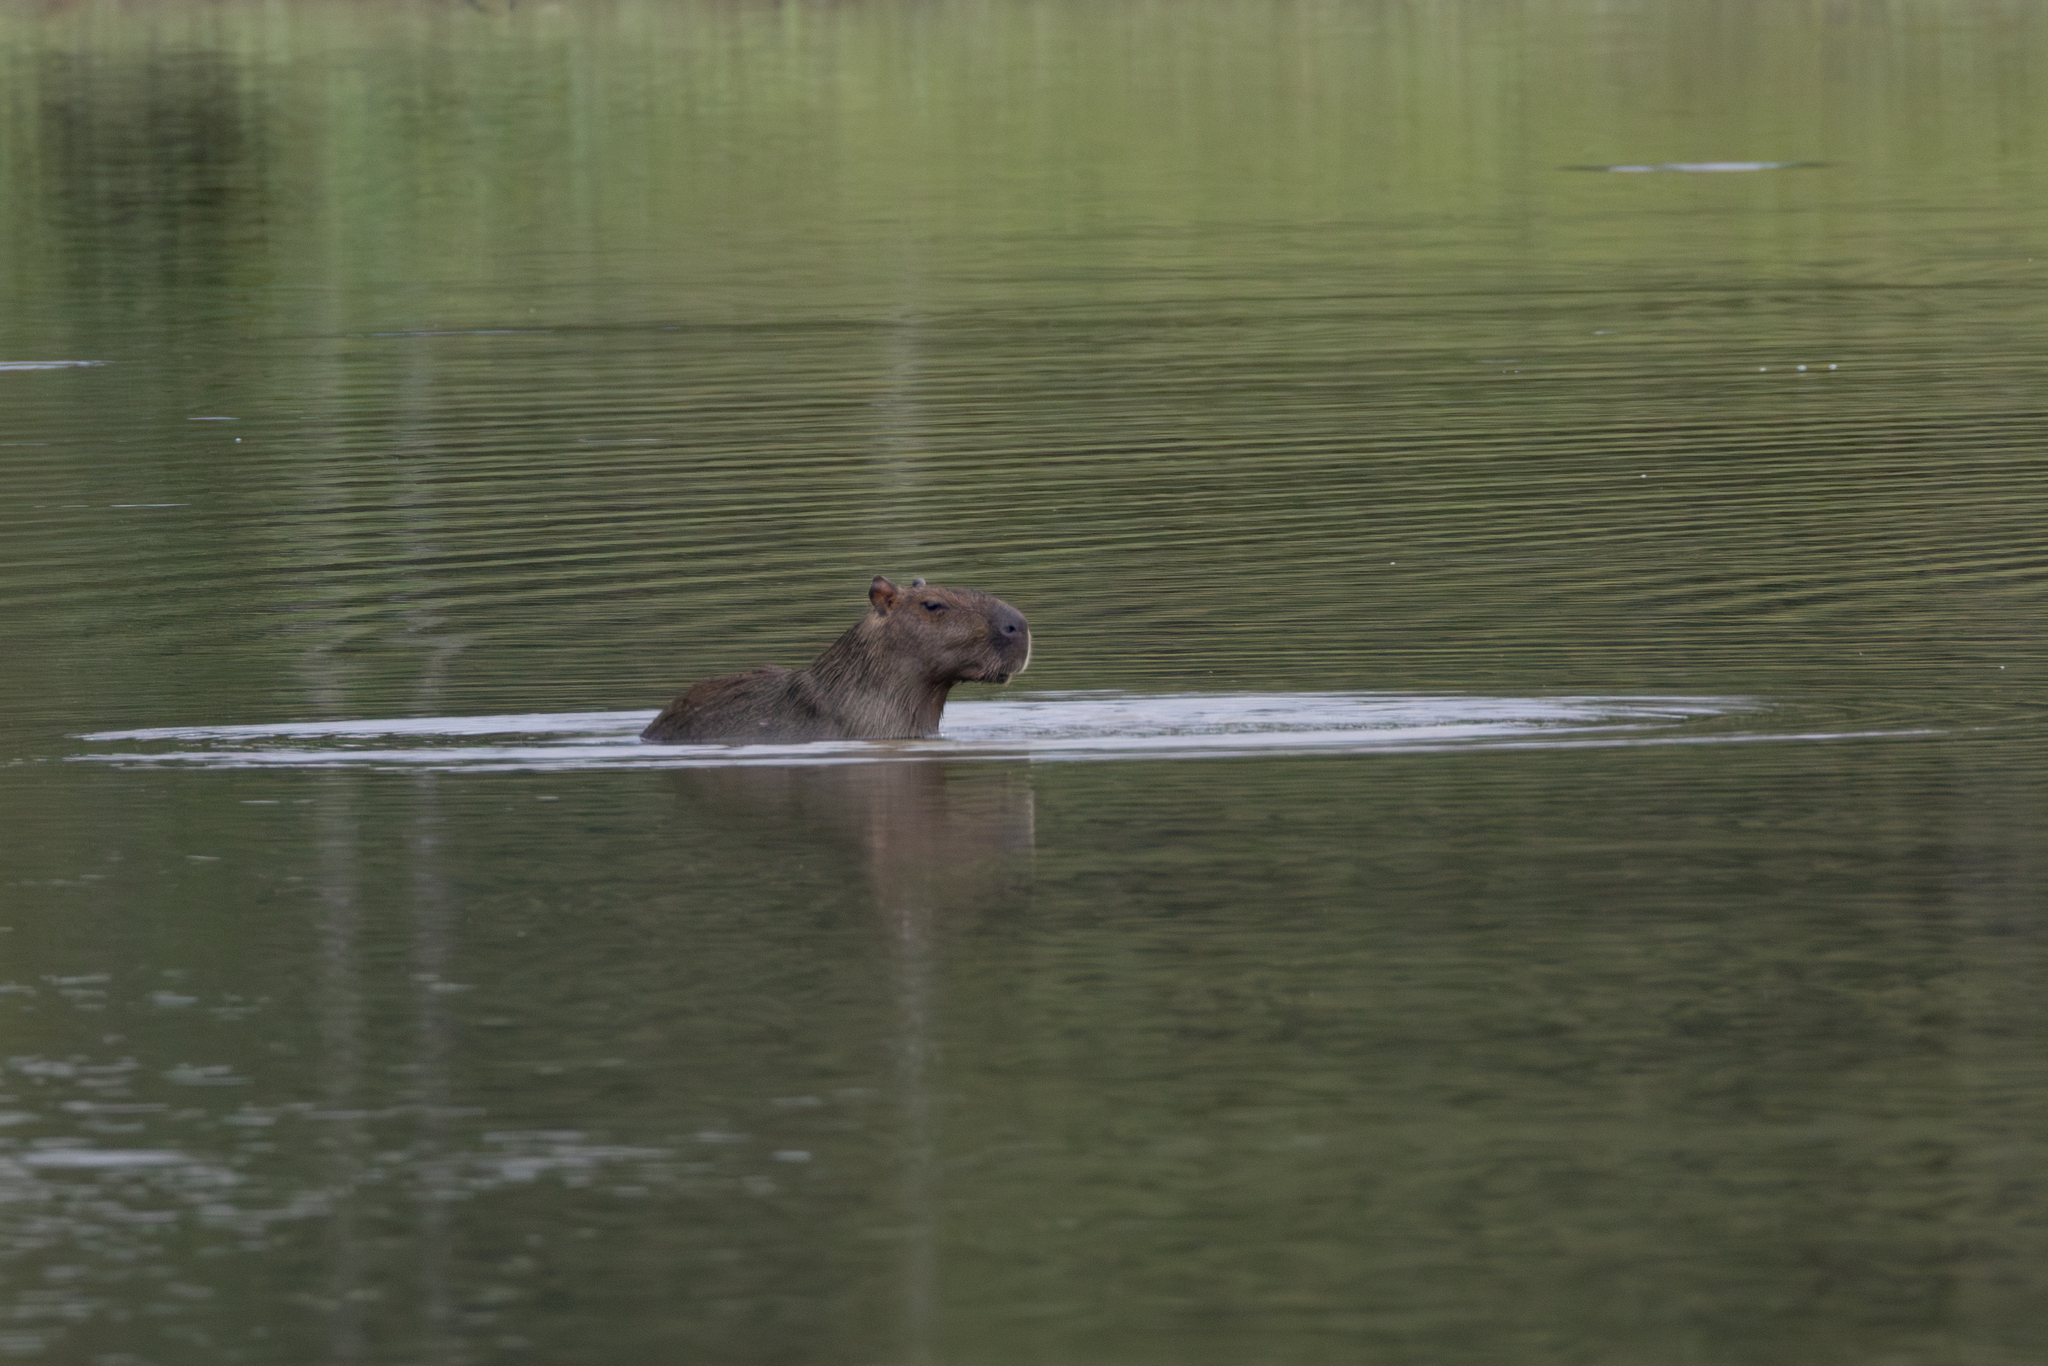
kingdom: Animalia
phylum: Chordata
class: Mammalia
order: Rodentia
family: Caviidae
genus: Hydrochoerus
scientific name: Hydrochoerus hydrochaeris
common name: Capybara
